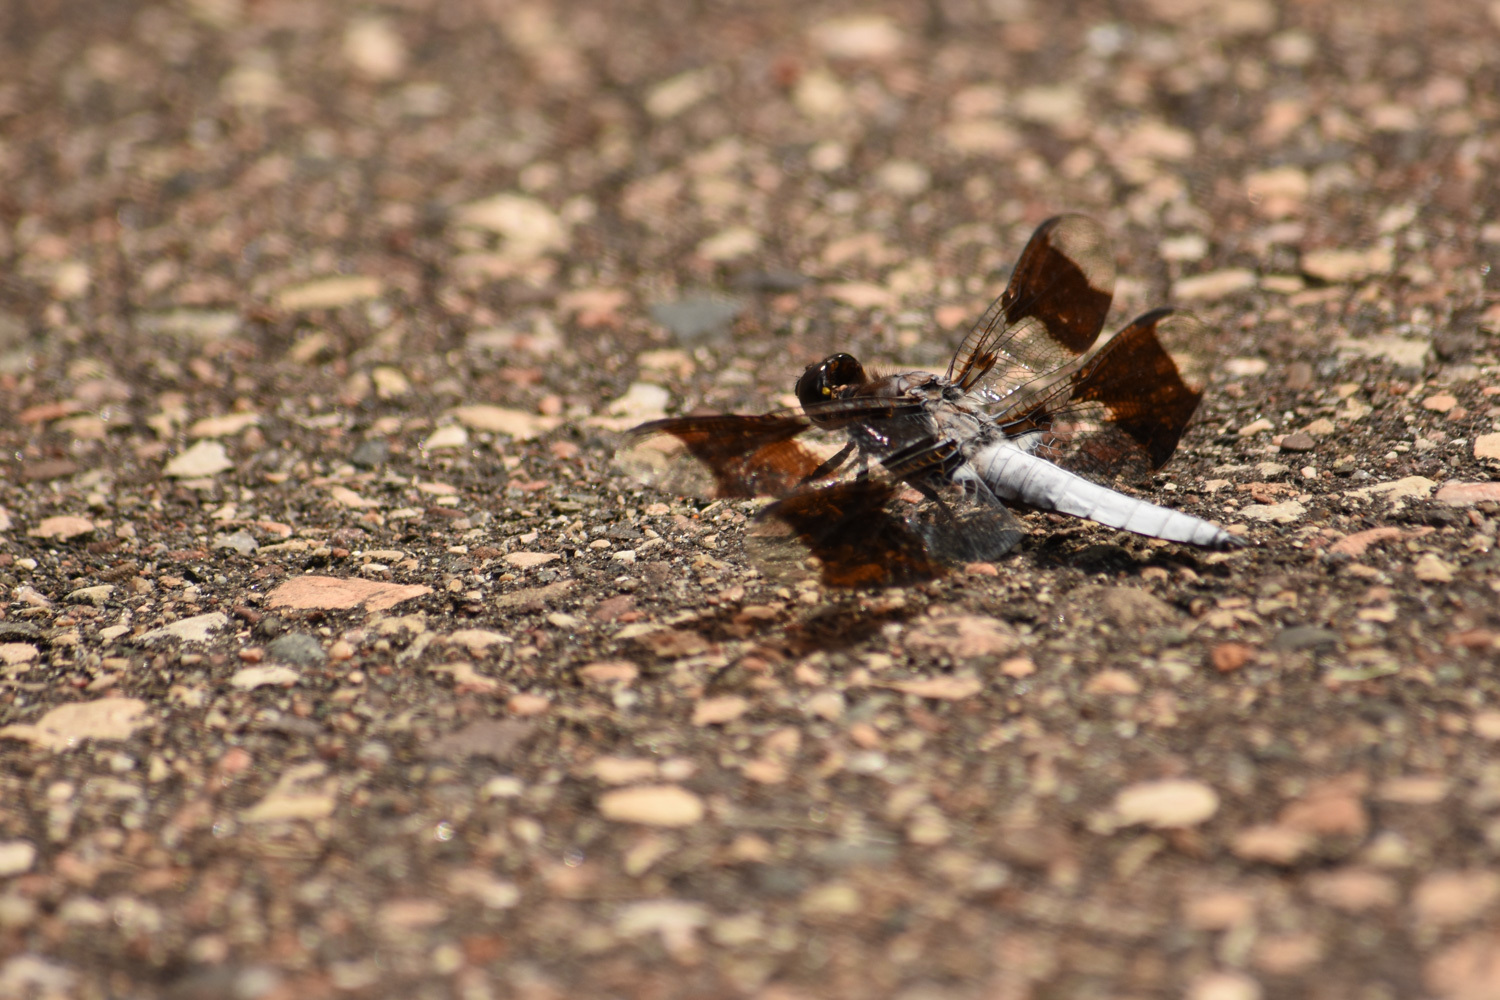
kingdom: Animalia
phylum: Arthropoda
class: Insecta
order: Odonata
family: Libellulidae
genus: Plathemis
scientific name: Plathemis lydia
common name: Common whitetail
